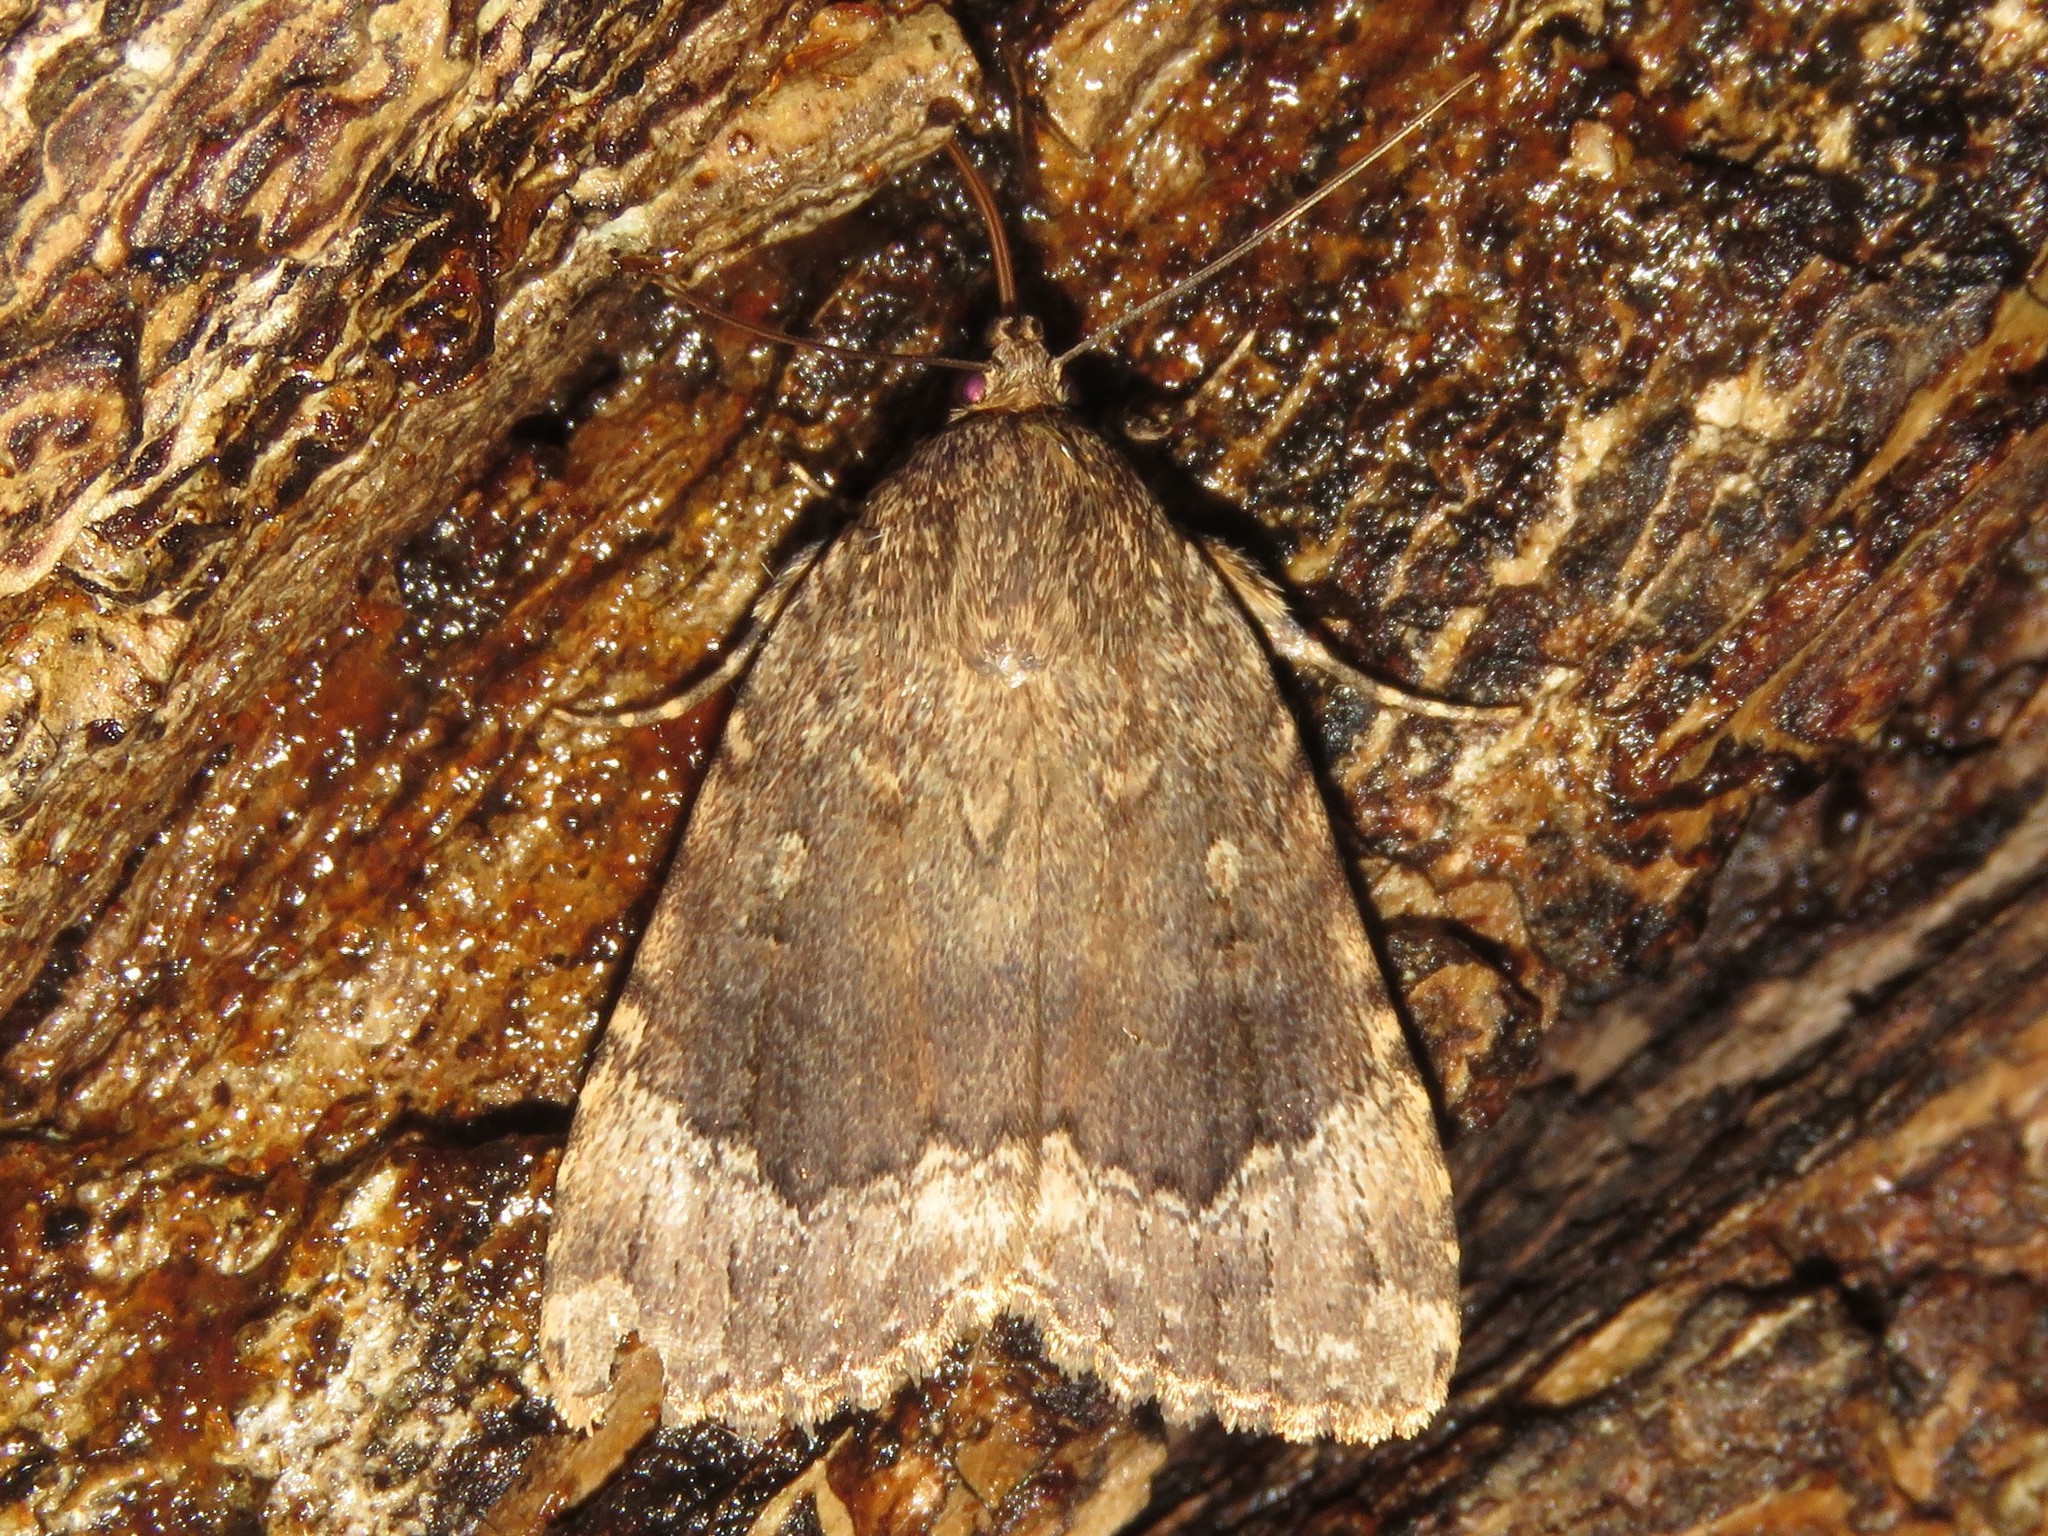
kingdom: Animalia
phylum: Arthropoda
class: Insecta
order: Lepidoptera
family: Noctuidae
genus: Amphipyra
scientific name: Amphipyra pyramidoides
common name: American copper underwing
